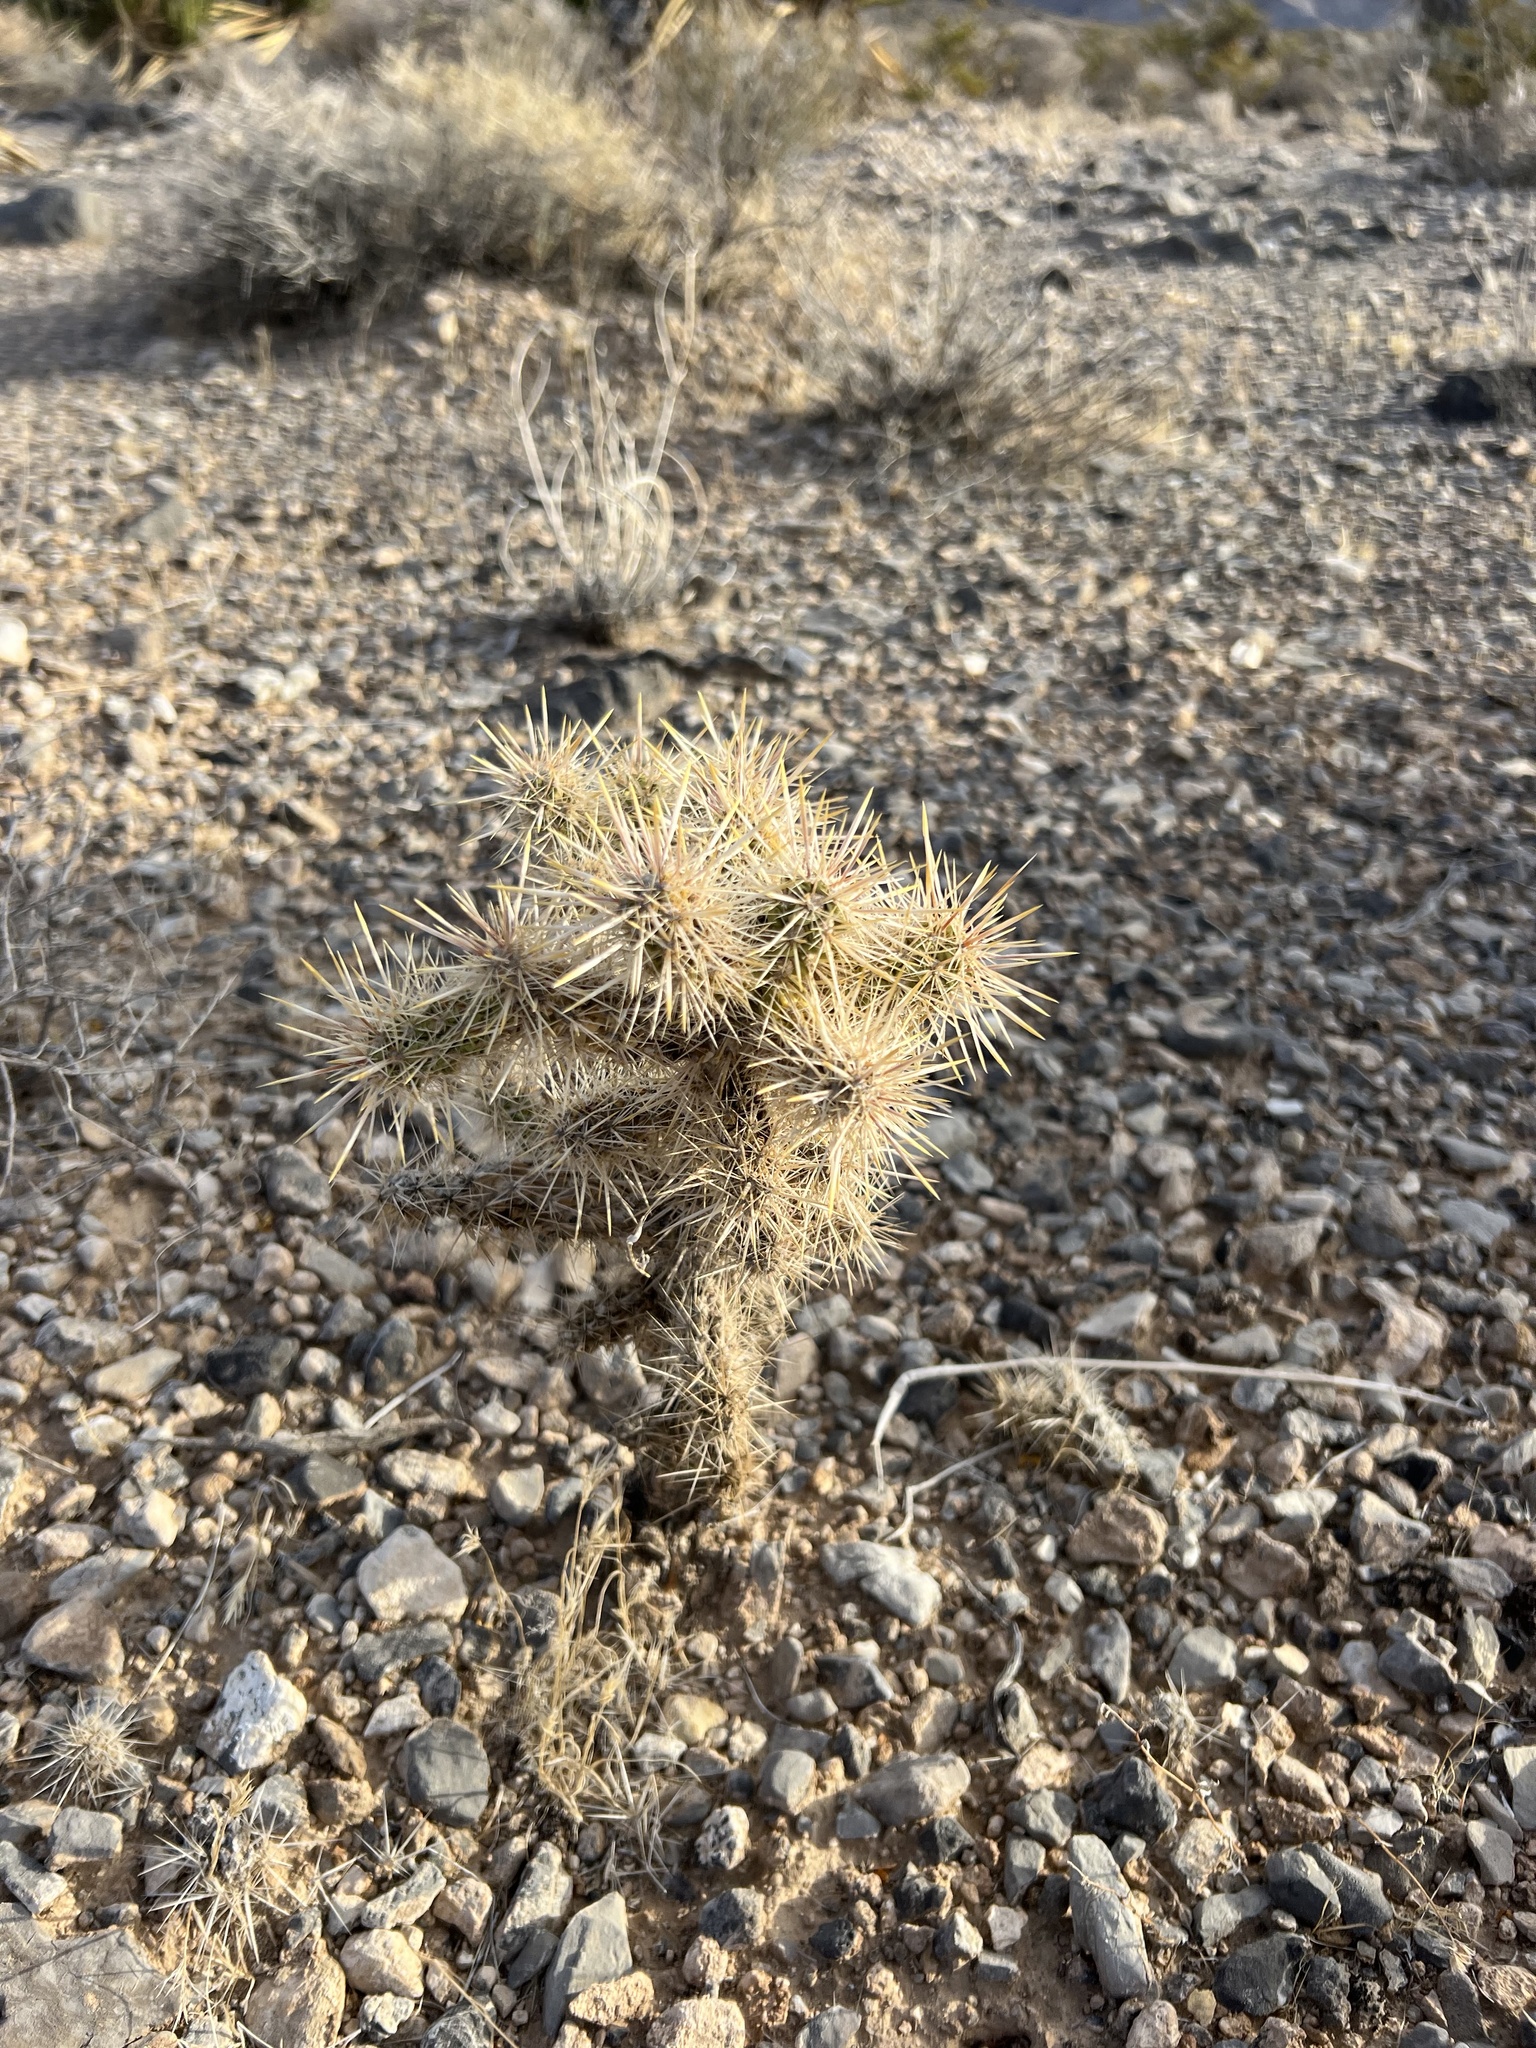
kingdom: Plantae
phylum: Tracheophyta
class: Magnoliopsida
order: Caryophyllales
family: Cactaceae
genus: Cylindropuntia
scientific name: Cylindropuntia echinocarpa
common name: Ground cholla
